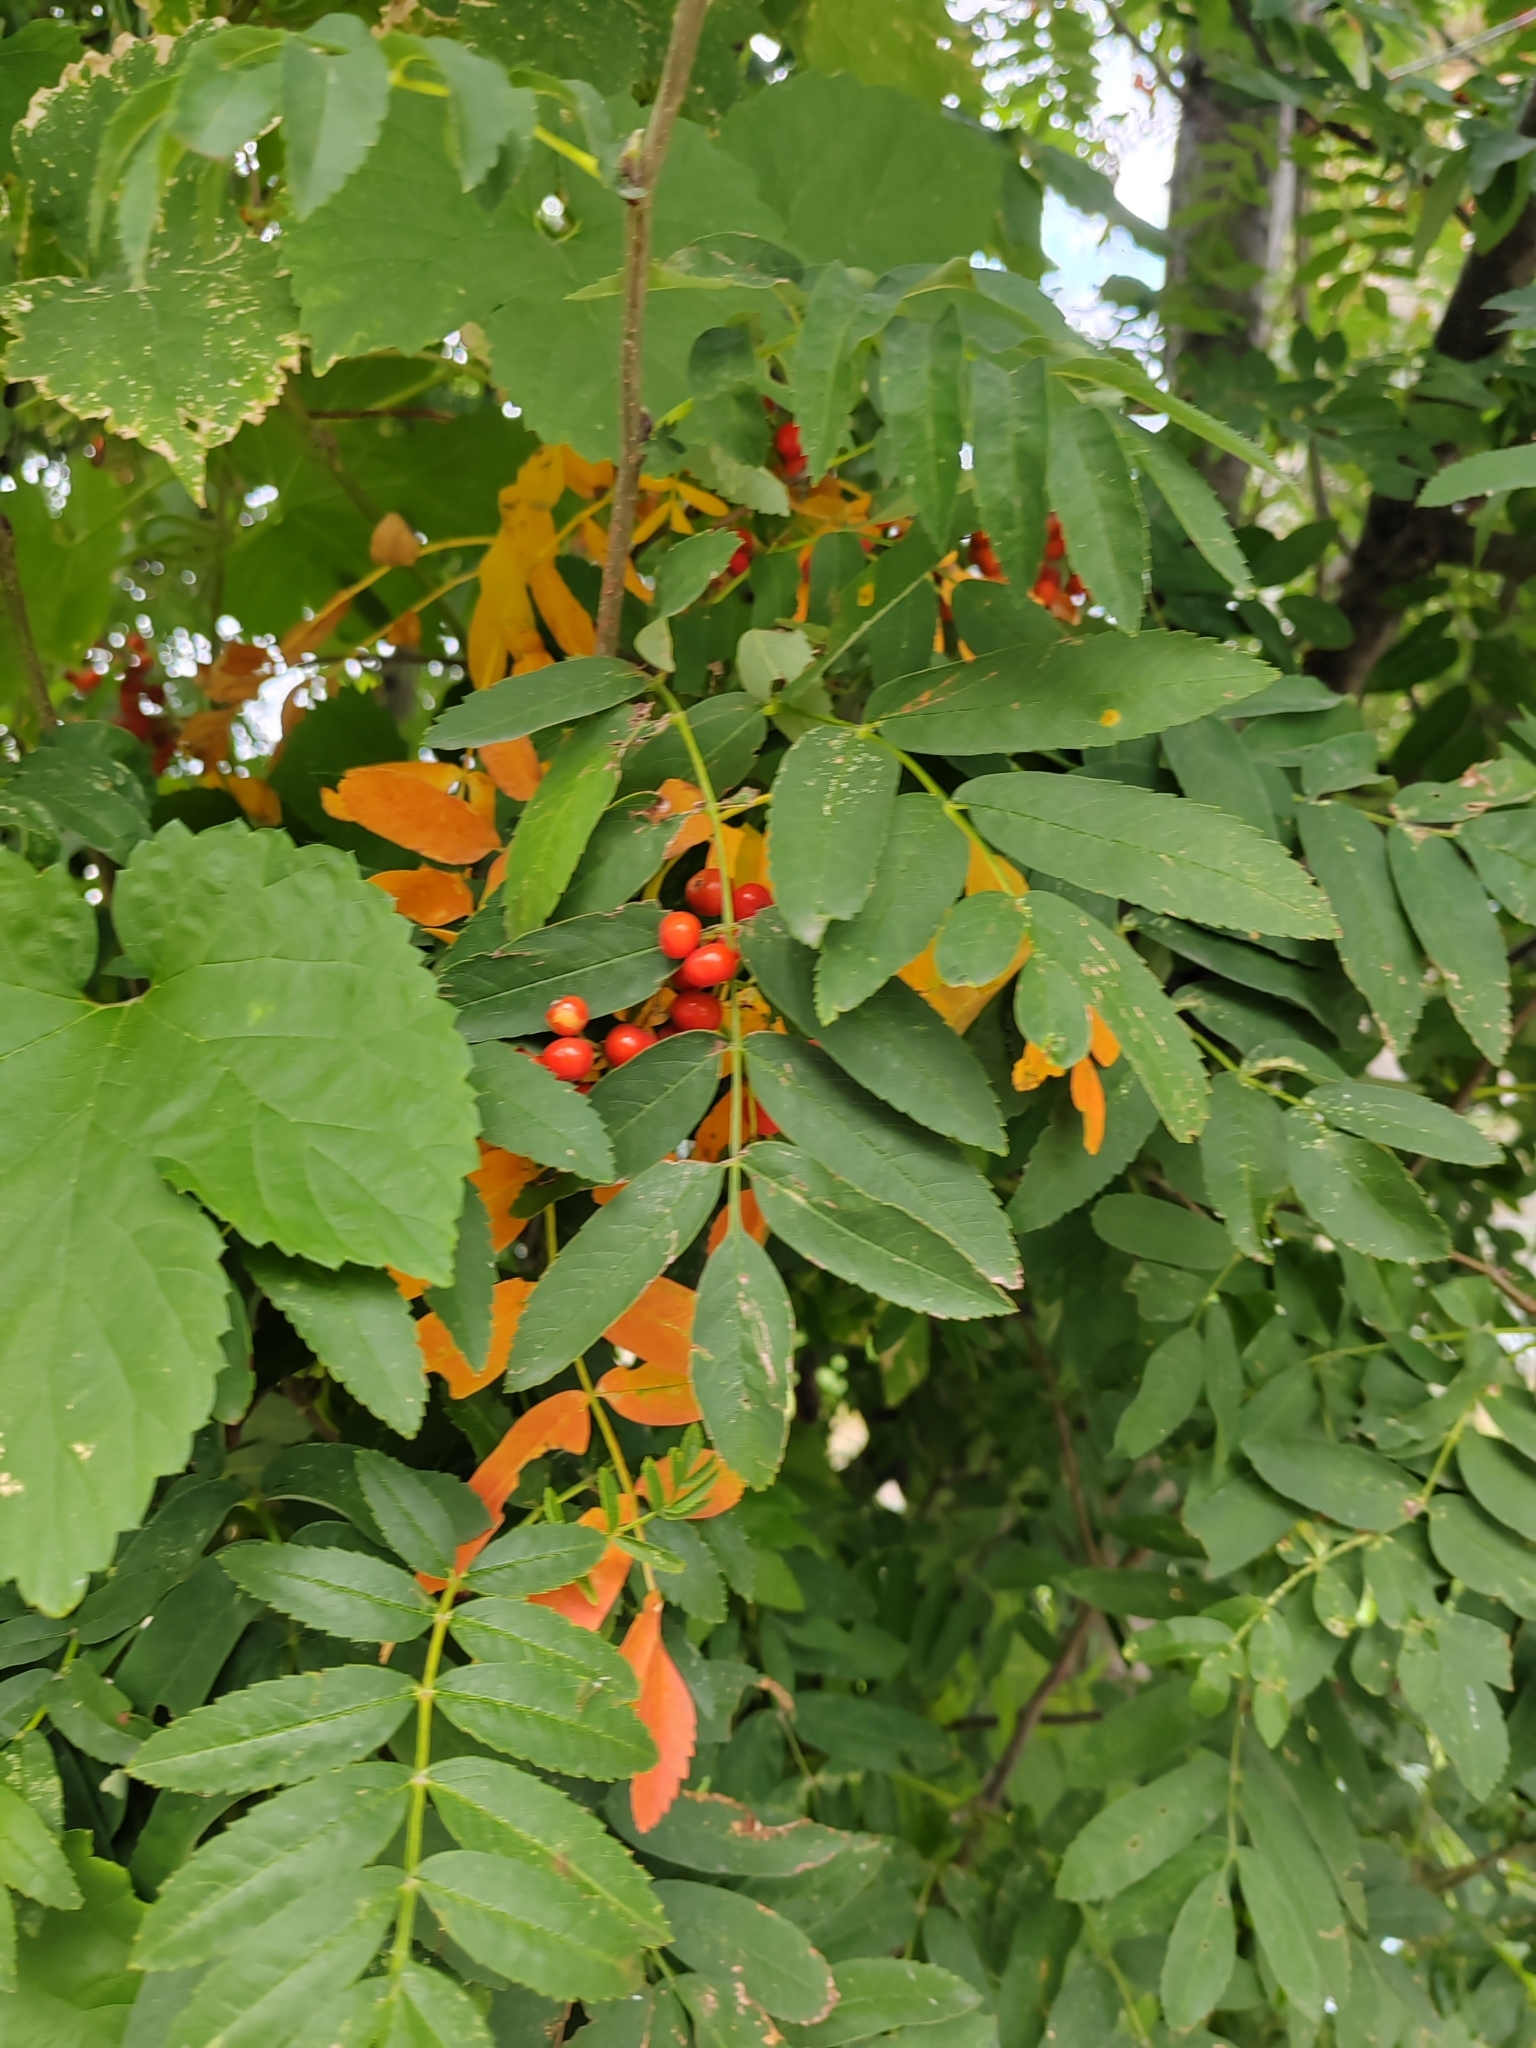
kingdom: Plantae
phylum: Tracheophyta
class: Magnoliopsida
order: Rosales
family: Rosaceae
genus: Sorbus
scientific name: Sorbus aucuparia
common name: Rowan
